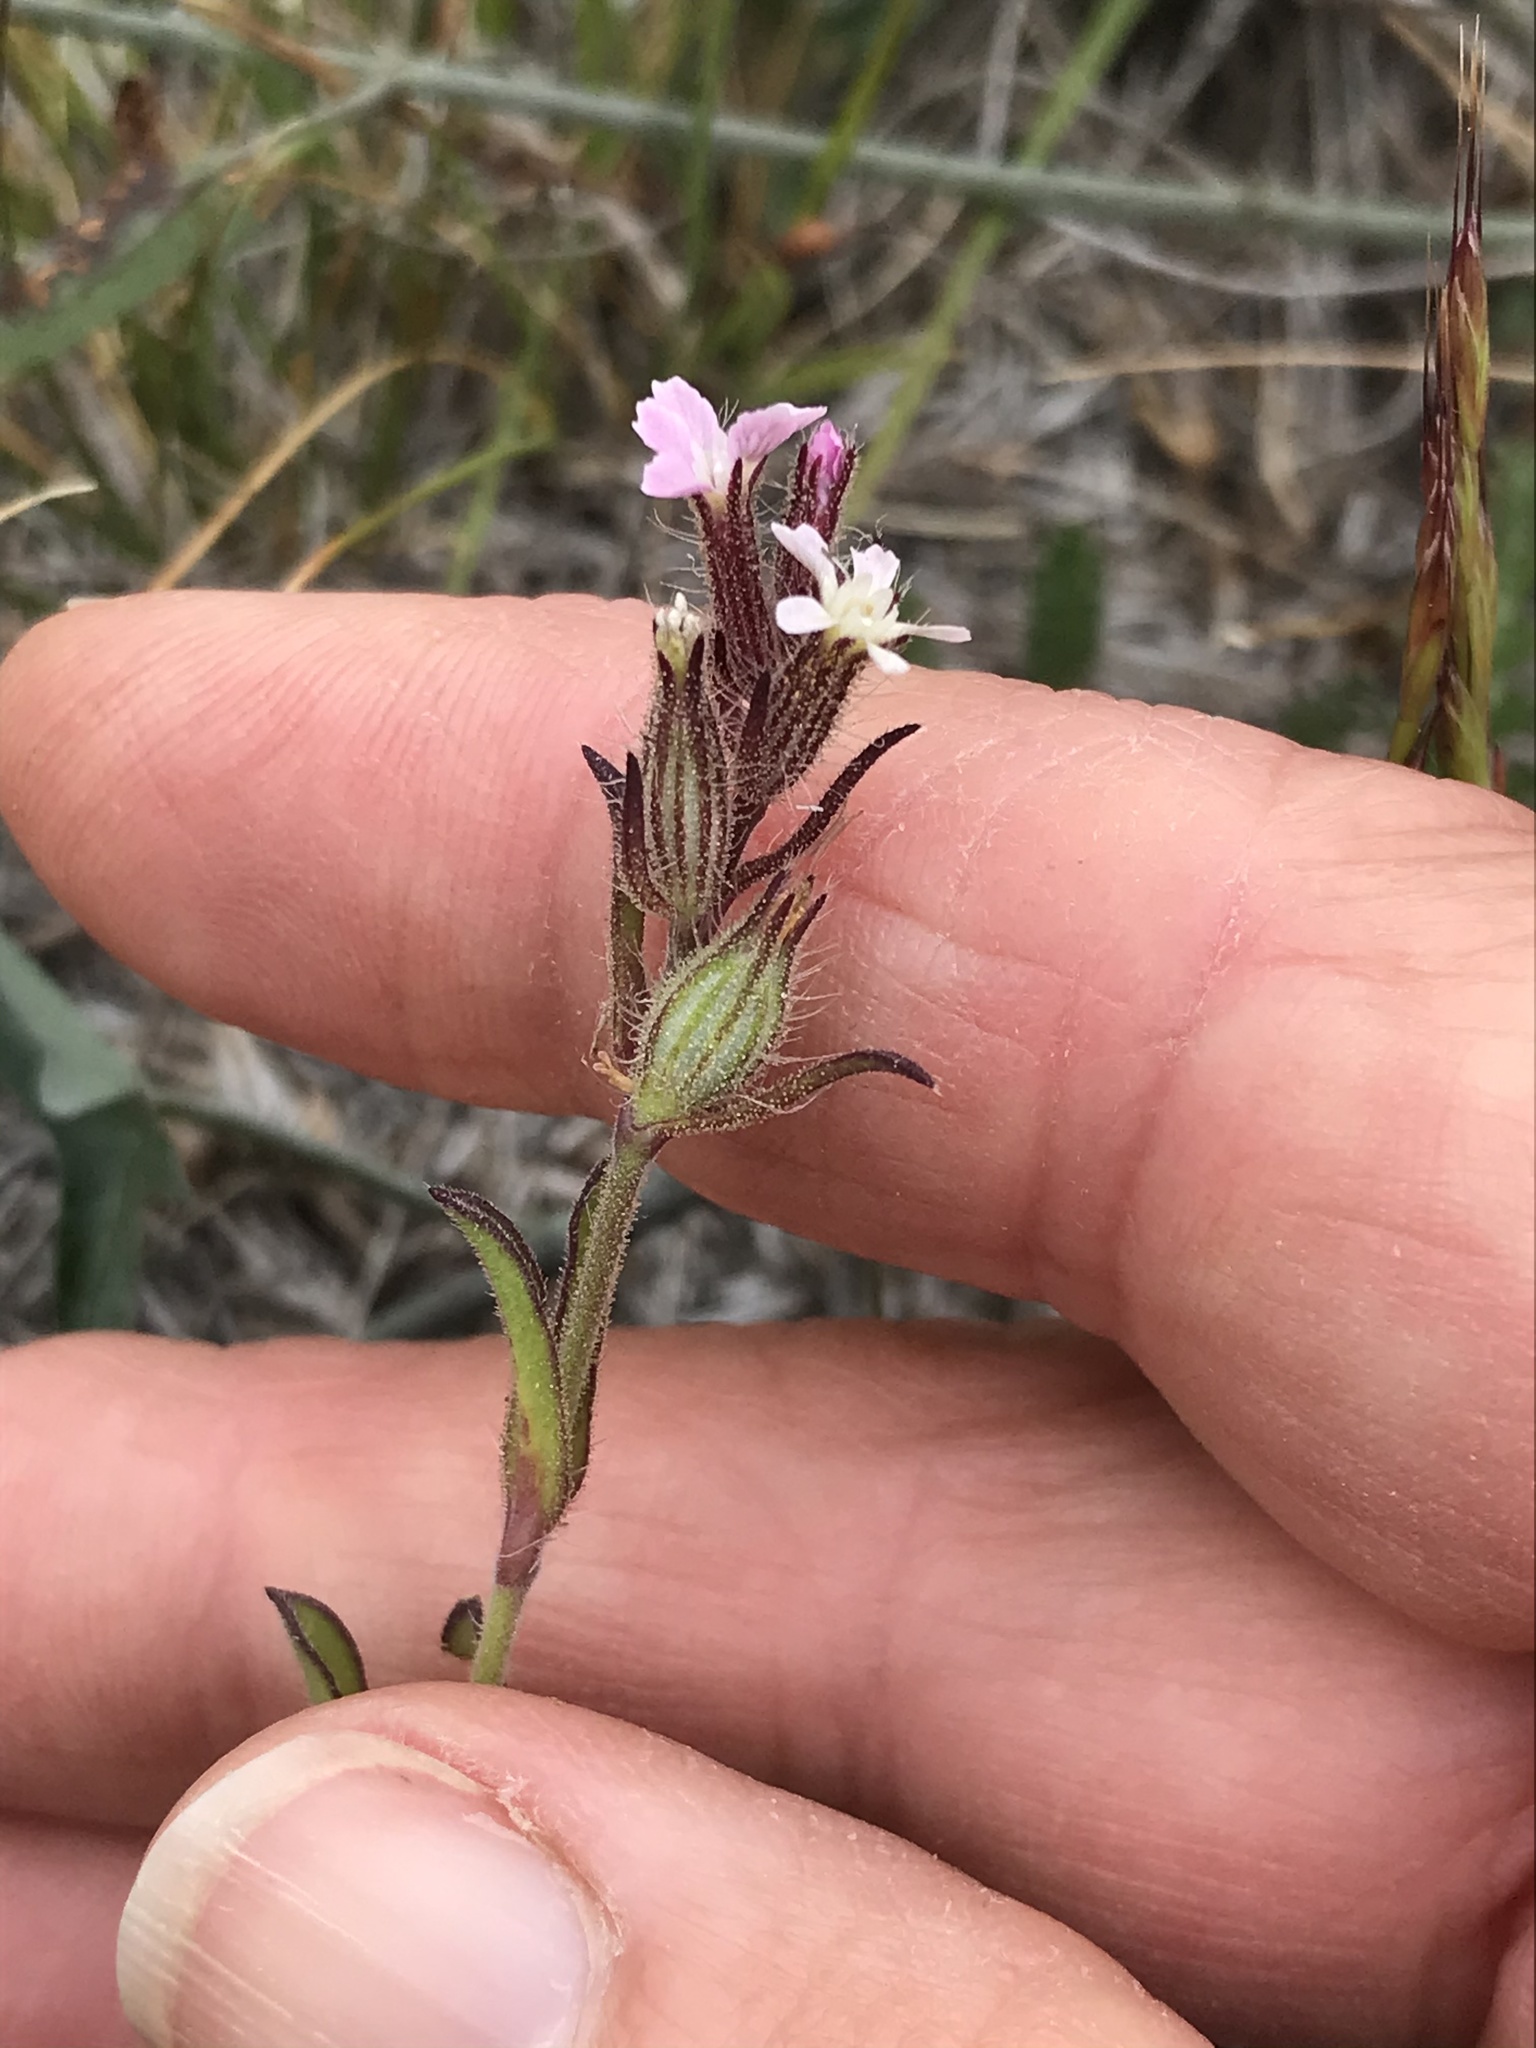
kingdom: Plantae
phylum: Tracheophyta
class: Magnoliopsida
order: Caryophyllales
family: Caryophyllaceae
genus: Silene
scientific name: Silene gallica
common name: Small-flowered catchfly
